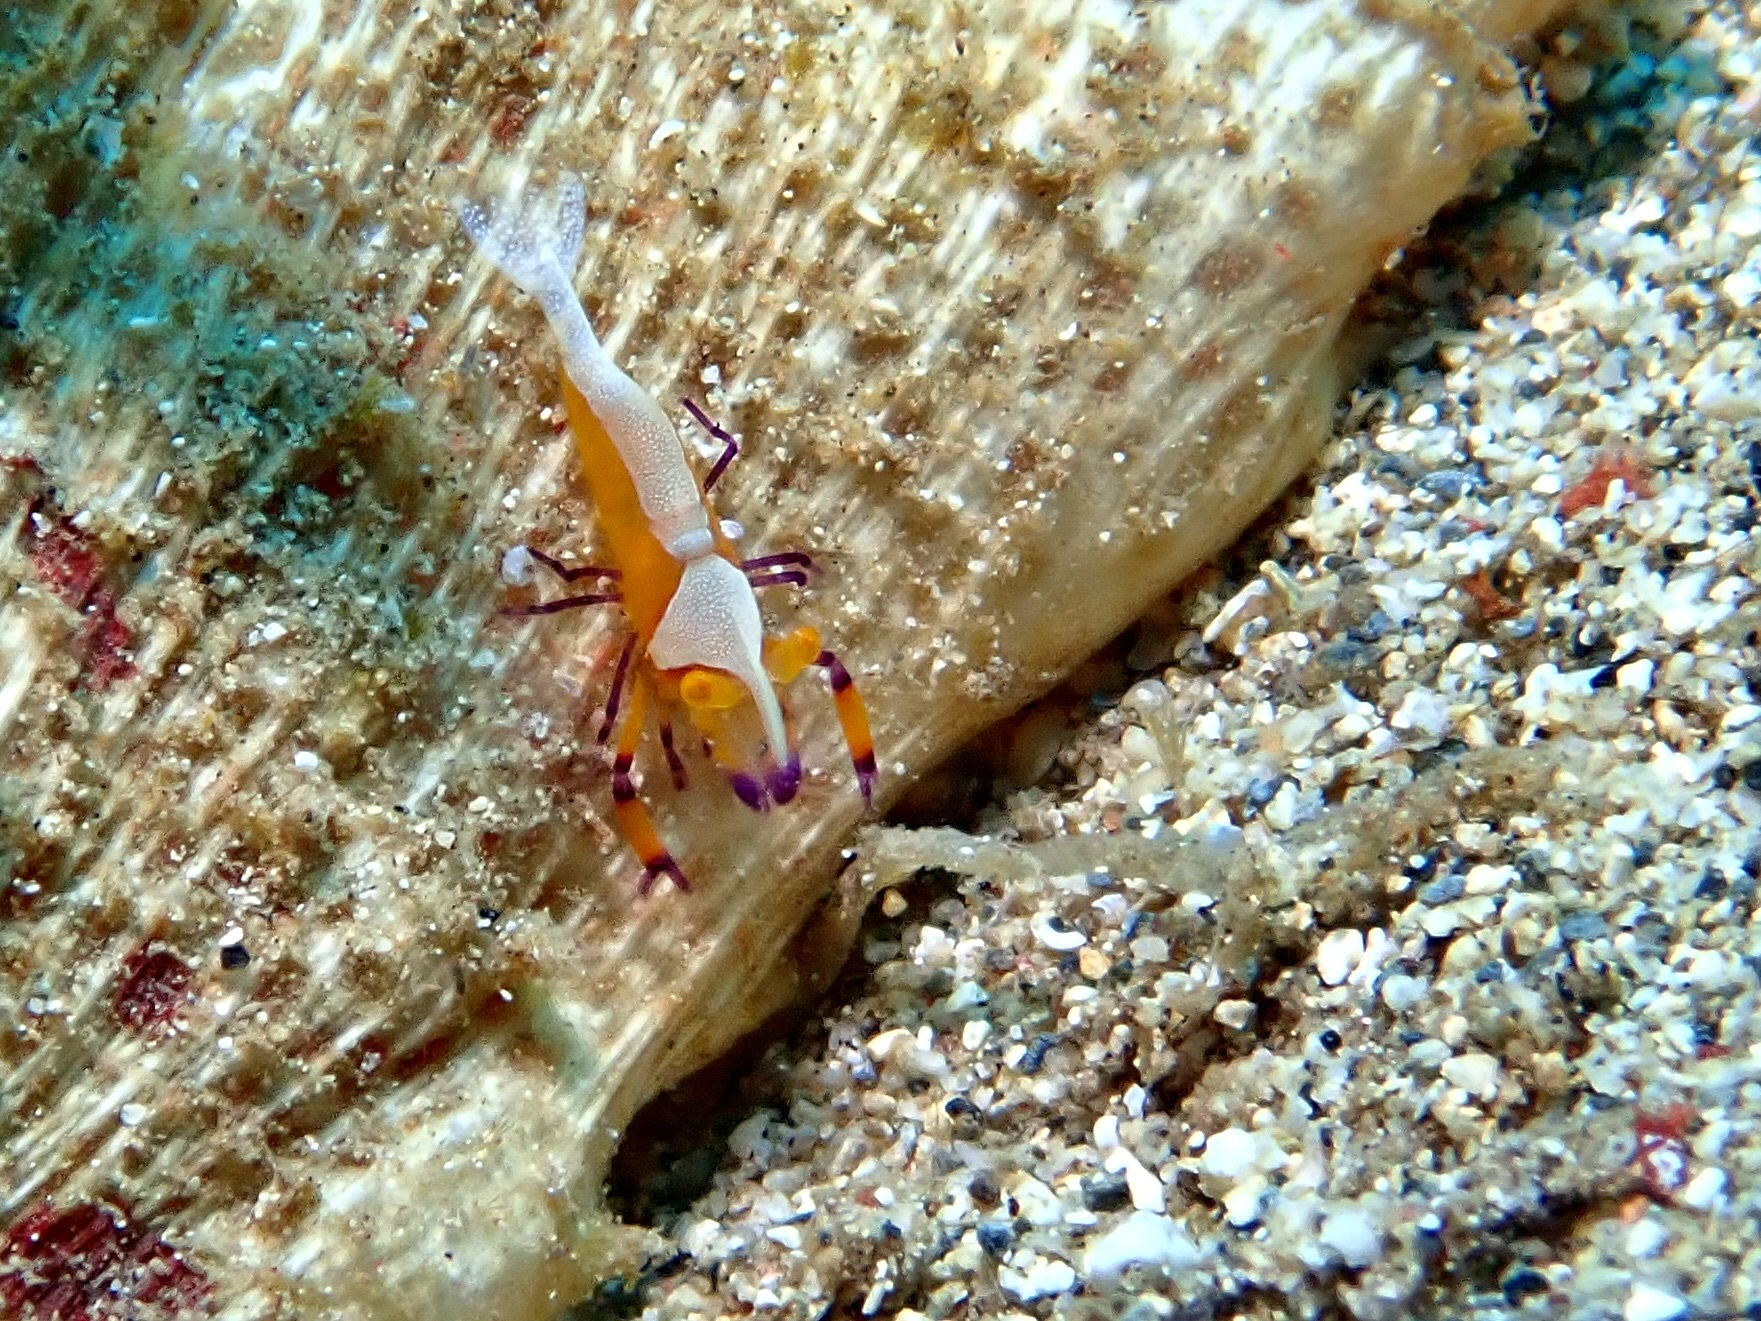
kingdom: Animalia
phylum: Arthropoda
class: Malacostraca
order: Decapoda
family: Palaemonidae
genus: Periclimenes
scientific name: Periclimenes rex
